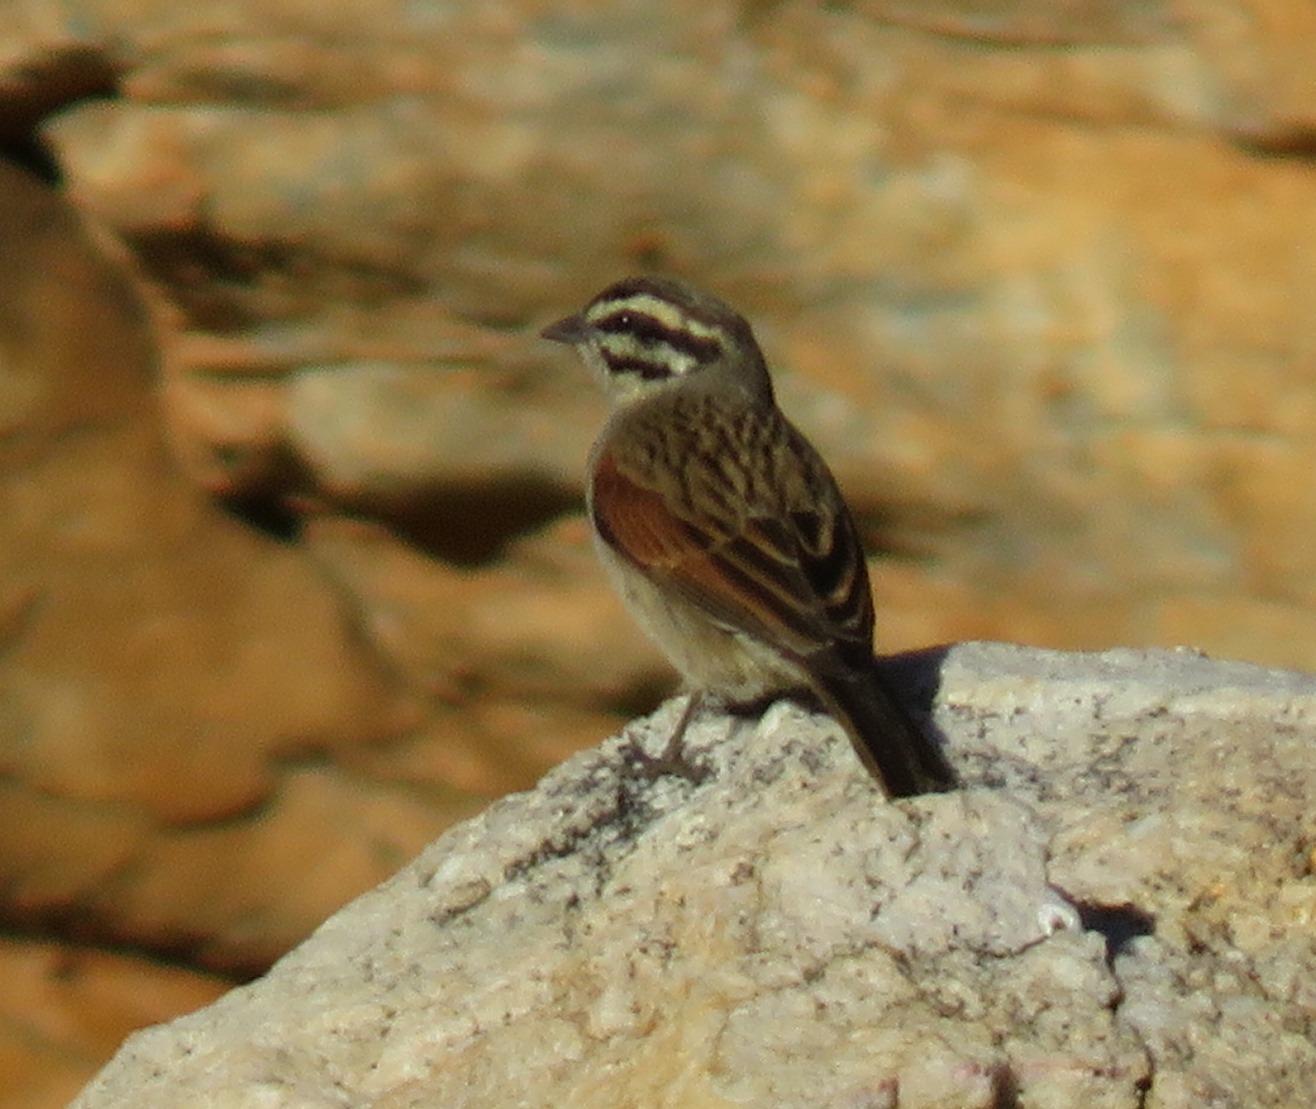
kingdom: Animalia
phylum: Chordata
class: Aves
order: Passeriformes
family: Emberizidae
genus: Emberiza
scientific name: Emberiza capensis
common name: Cape bunting
